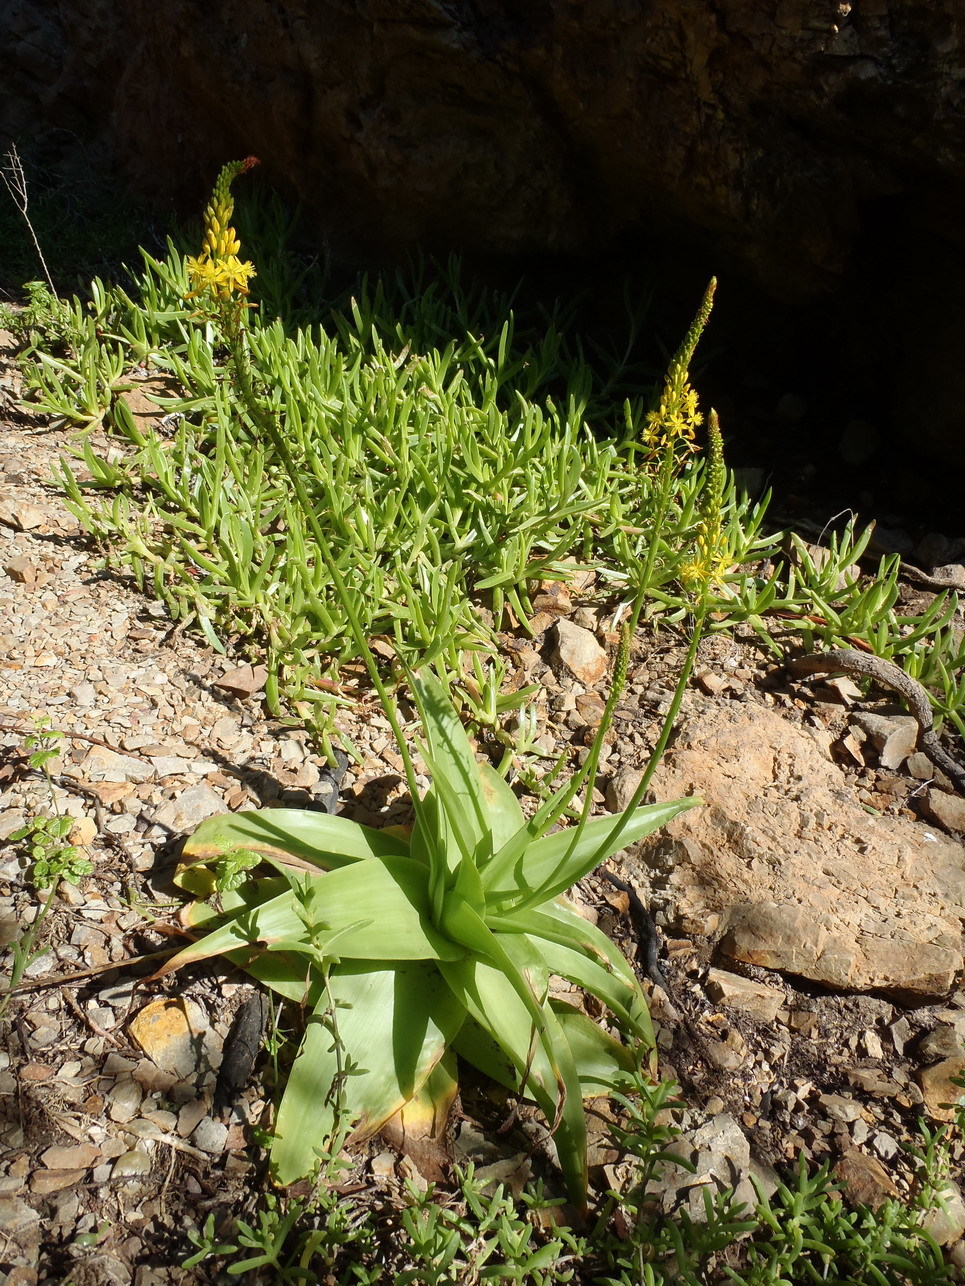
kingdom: Plantae
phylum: Tracheophyta
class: Liliopsida
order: Asparagales
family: Asphodelaceae
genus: Bulbine
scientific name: Bulbine latifolia
